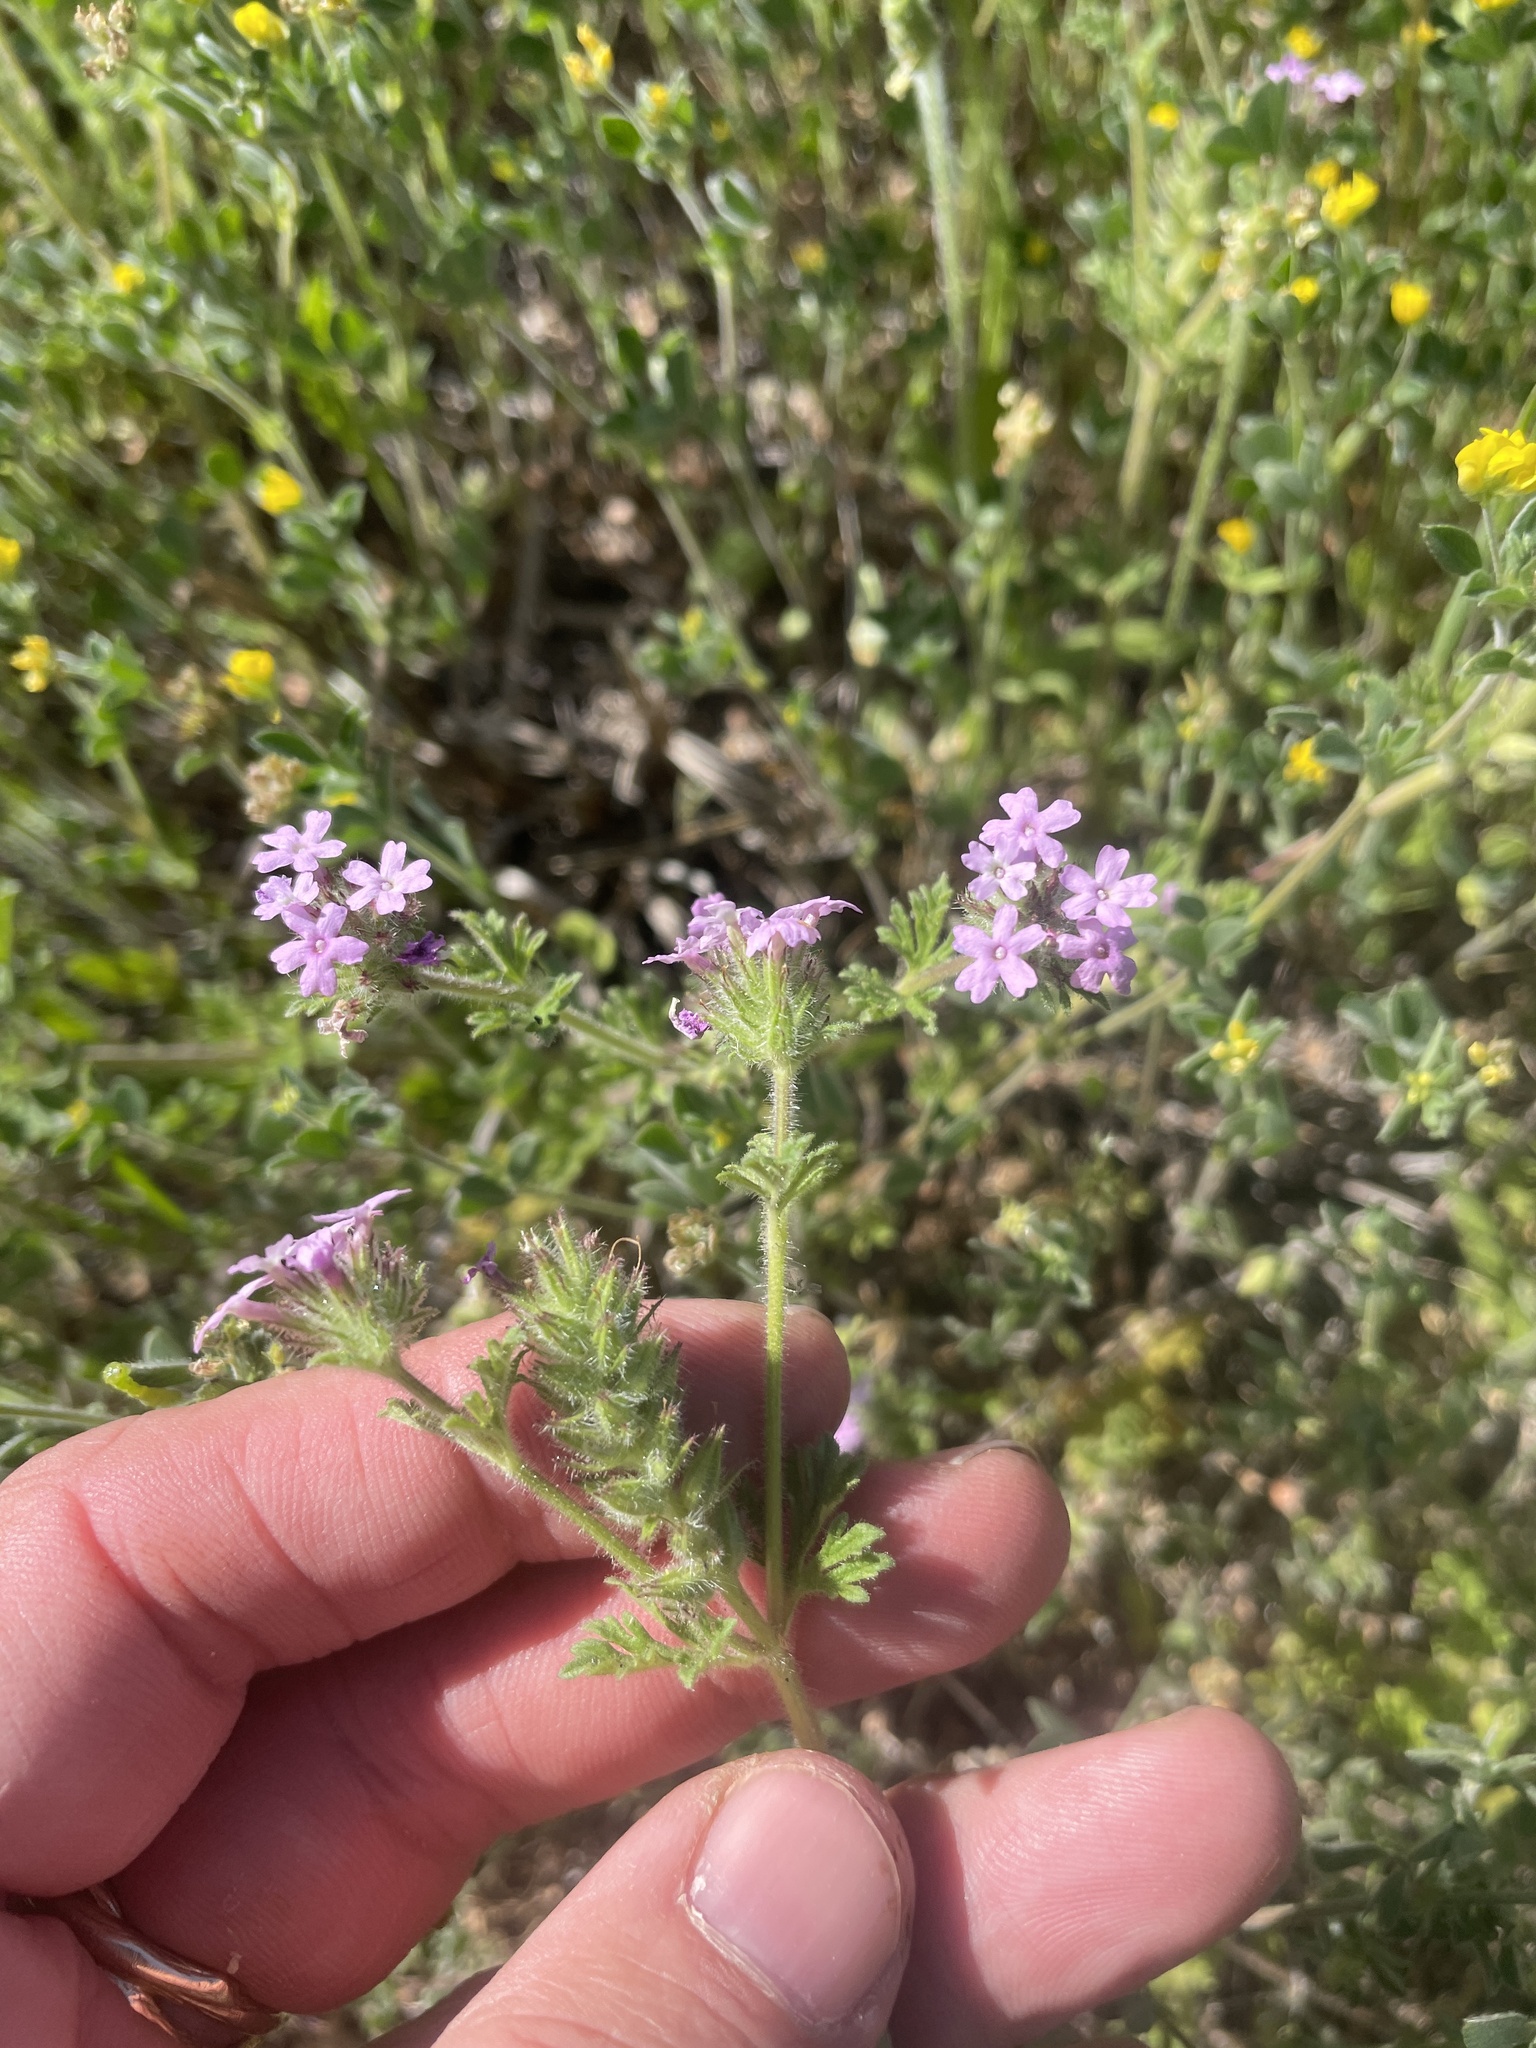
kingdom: Plantae
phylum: Tracheophyta
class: Magnoliopsida
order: Lamiales
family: Verbenaceae
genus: Verbena
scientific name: Verbena pumila
